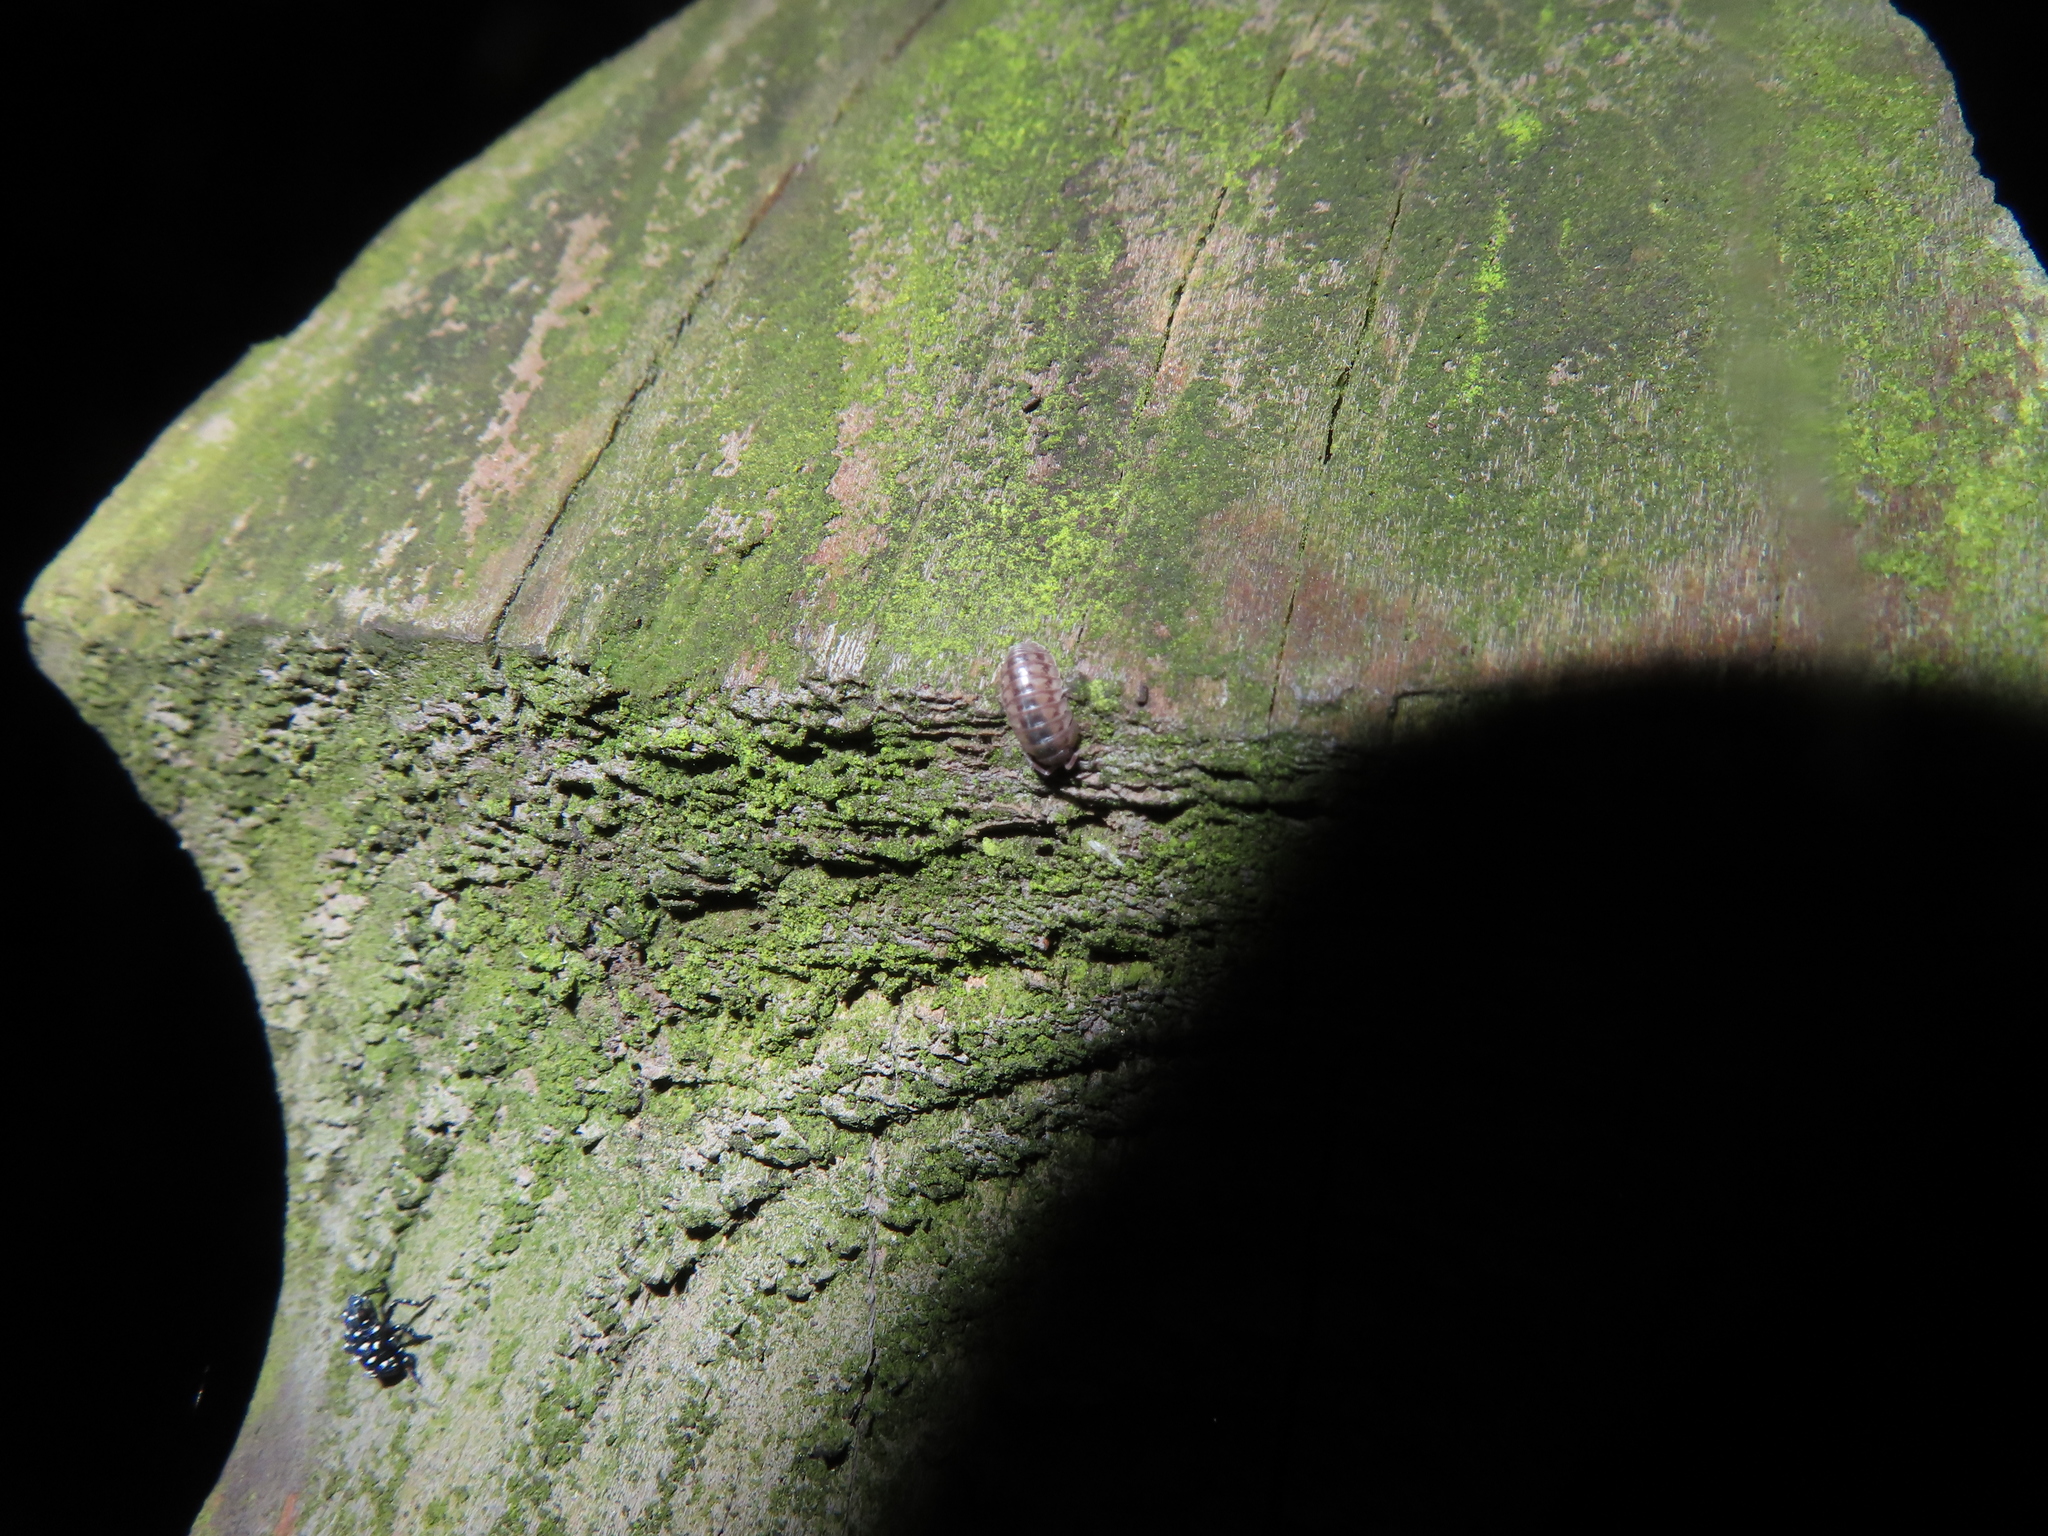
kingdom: Animalia
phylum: Arthropoda
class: Malacostraca
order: Isopoda
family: Armadillidiidae
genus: Armadillidium
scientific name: Armadillidium nasatum
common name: Isopod
